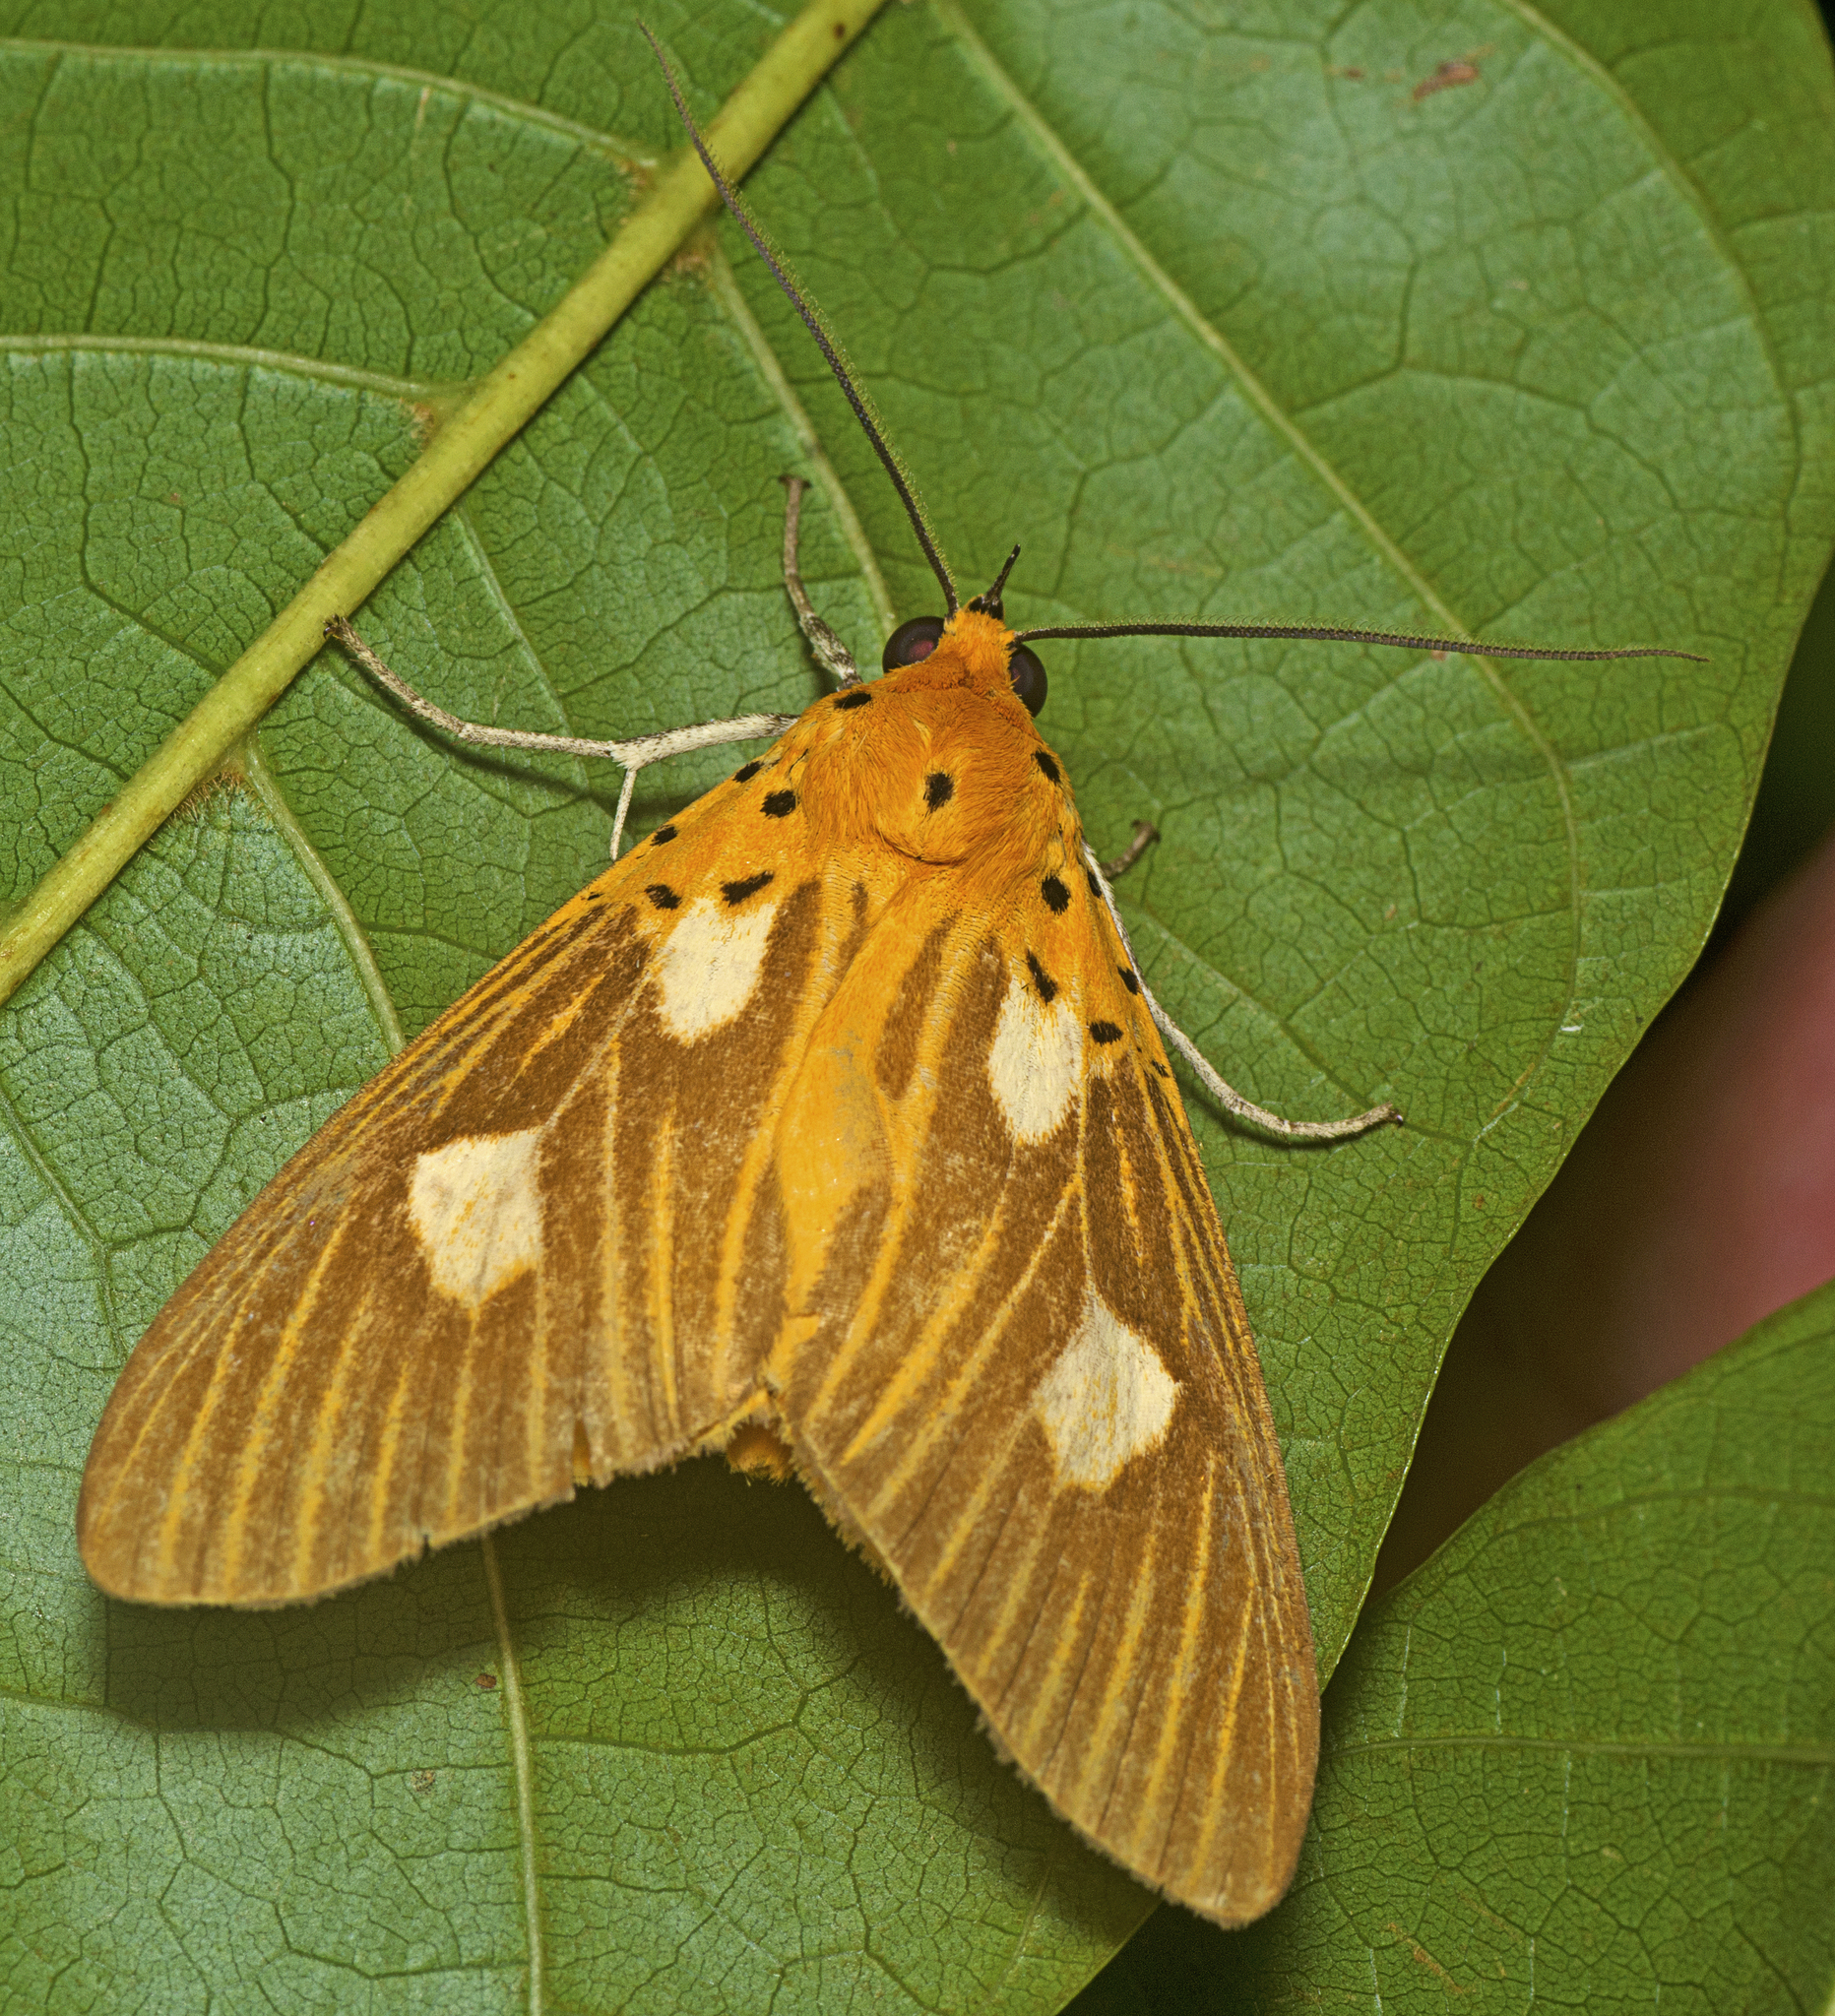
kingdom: Animalia
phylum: Arthropoda
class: Insecta
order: Lepidoptera
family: Erebidae
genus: Asota
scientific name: Asota orbona
